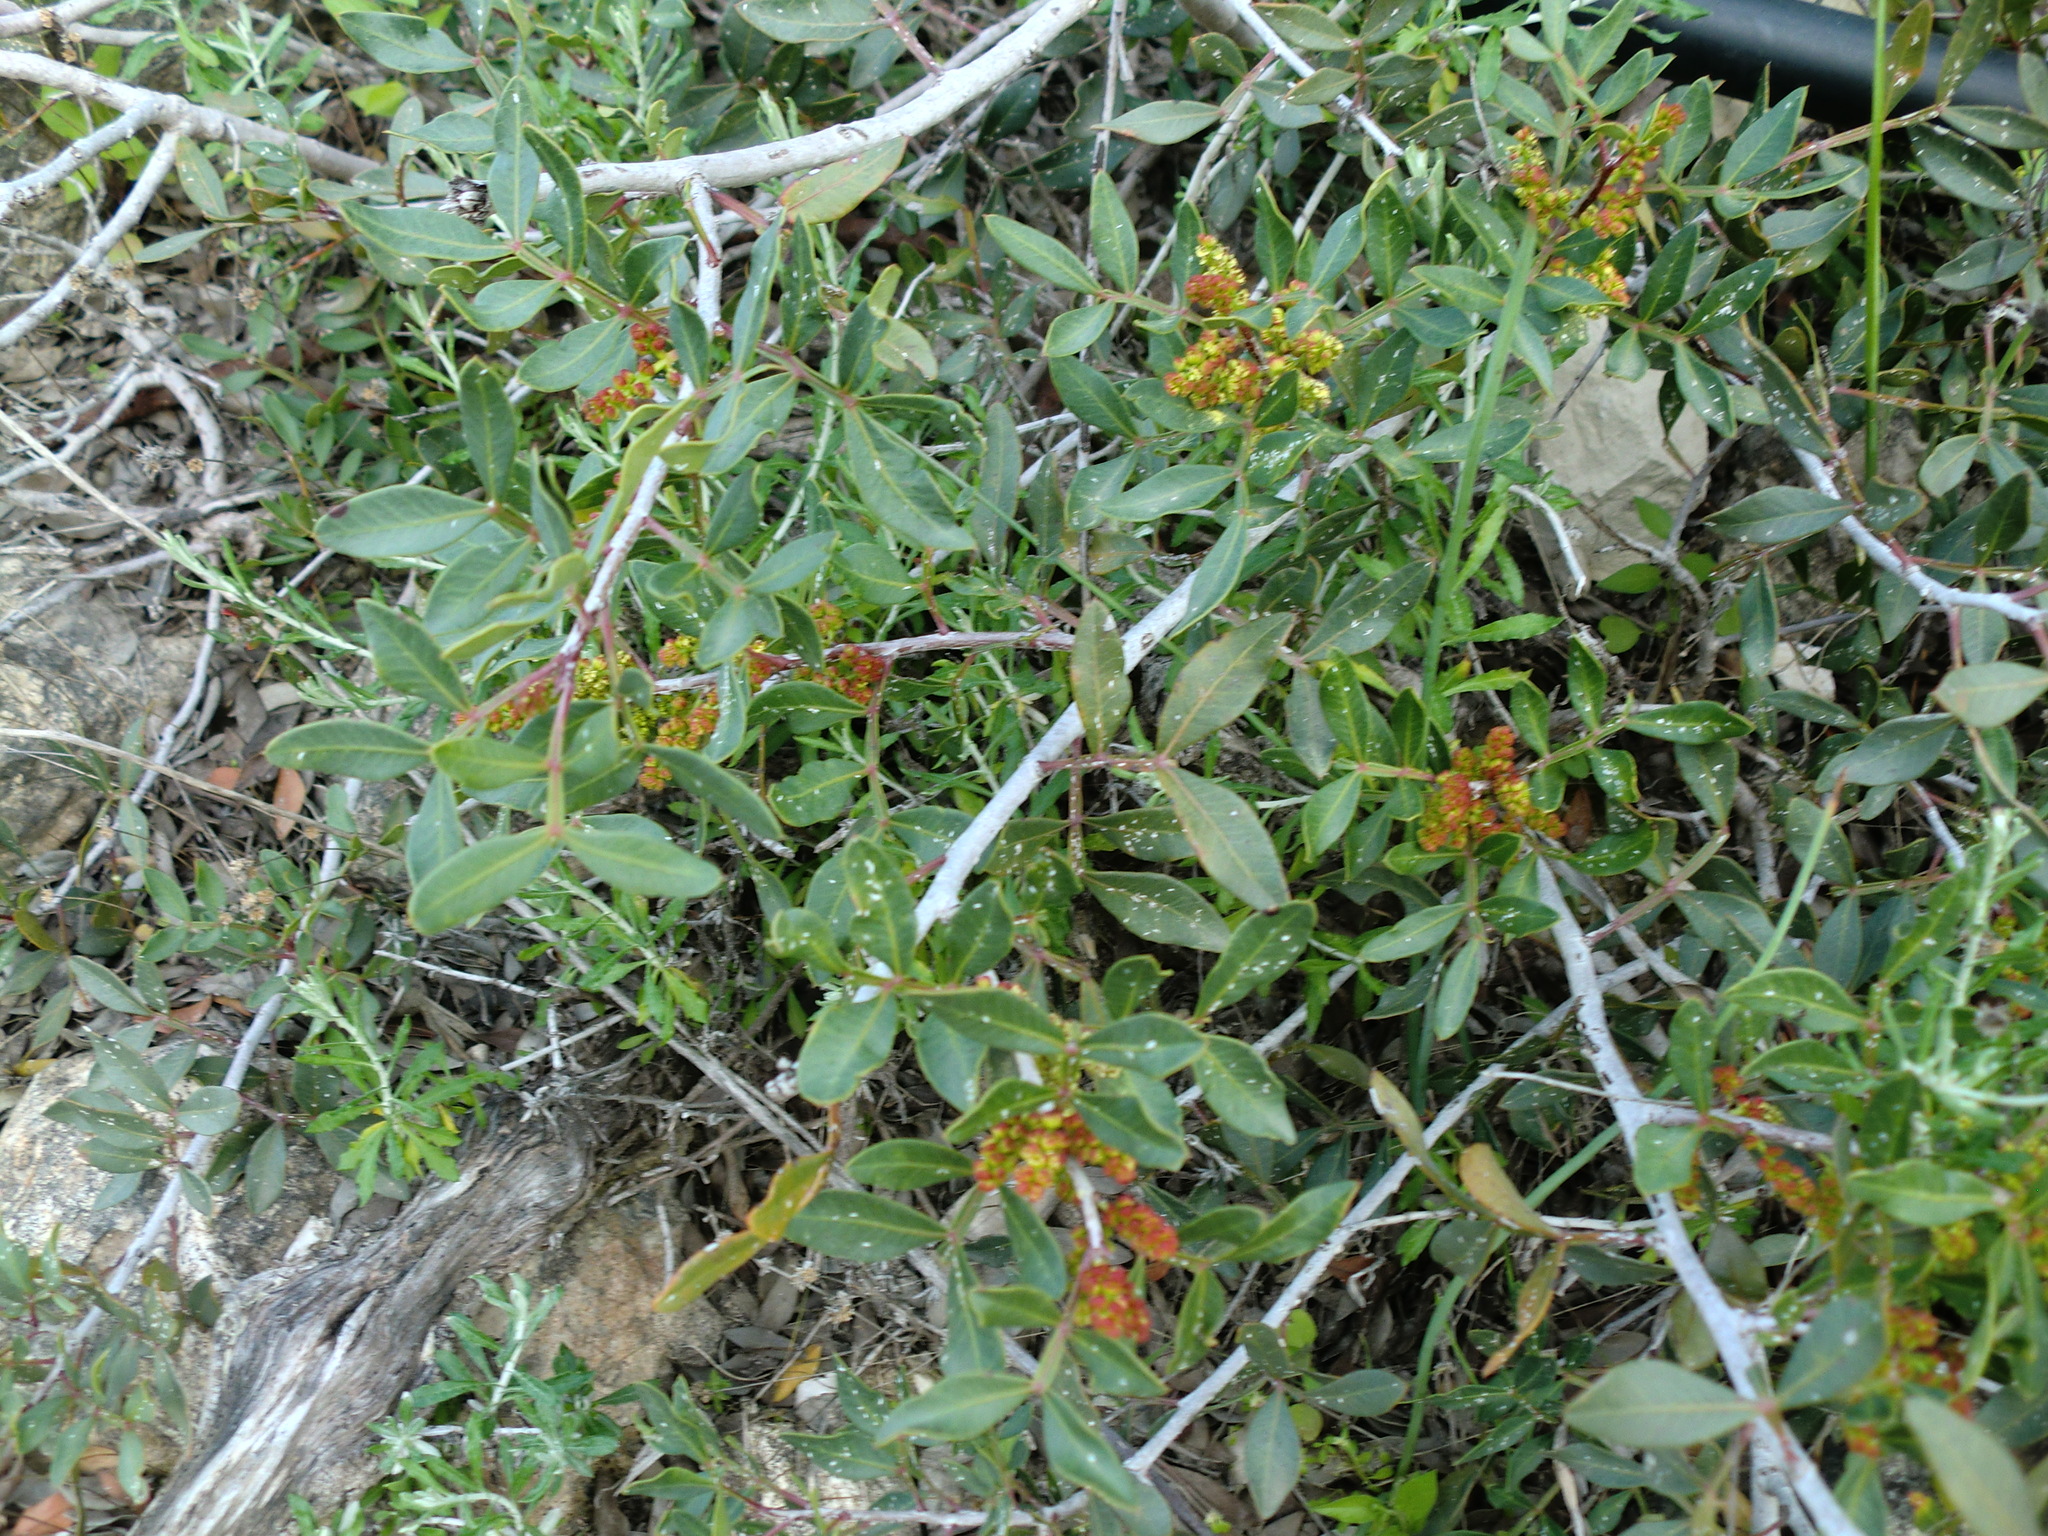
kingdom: Plantae
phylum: Tracheophyta
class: Magnoliopsida
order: Sapindales
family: Anacardiaceae
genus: Pistacia
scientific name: Pistacia lentiscus
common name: Lentisk
